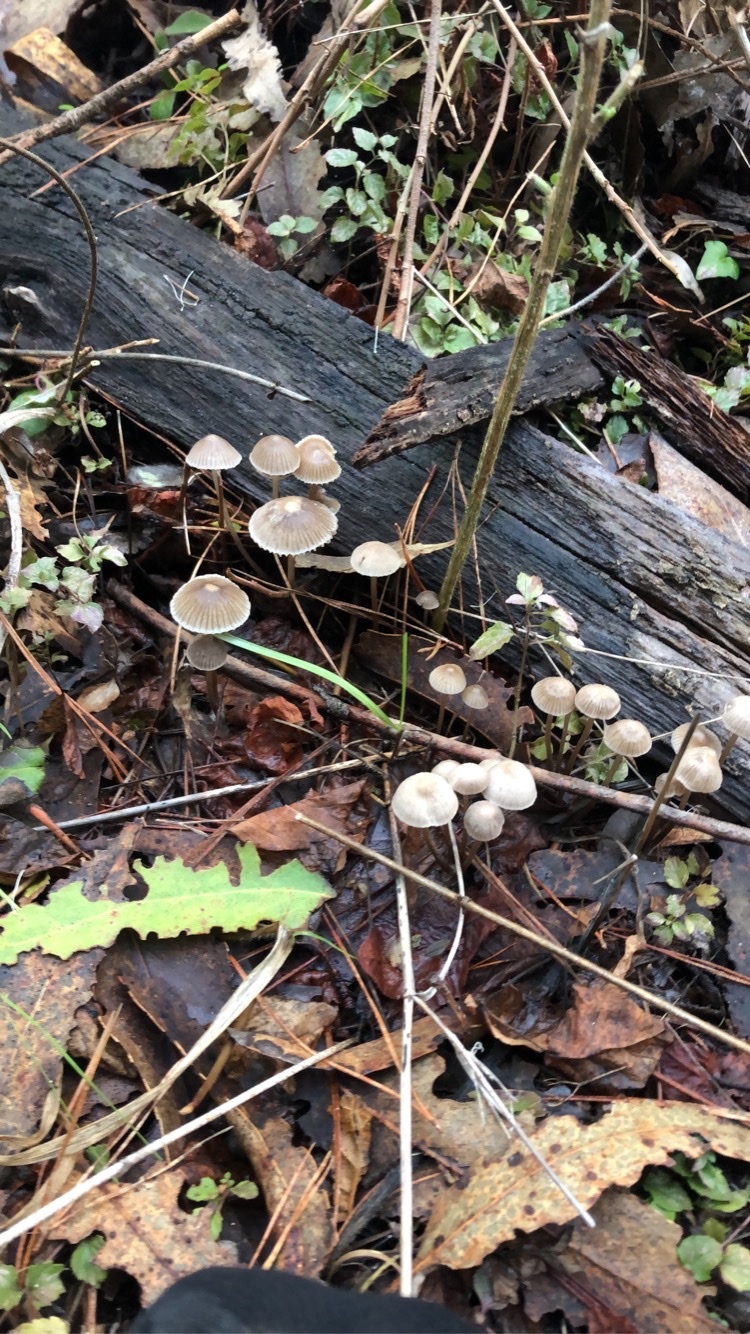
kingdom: Fungi
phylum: Basidiomycota
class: Agaricomycetes
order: Agaricales
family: Mycenaceae
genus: Mycena
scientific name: Mycena leptocephala
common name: Nitrous bonnet
